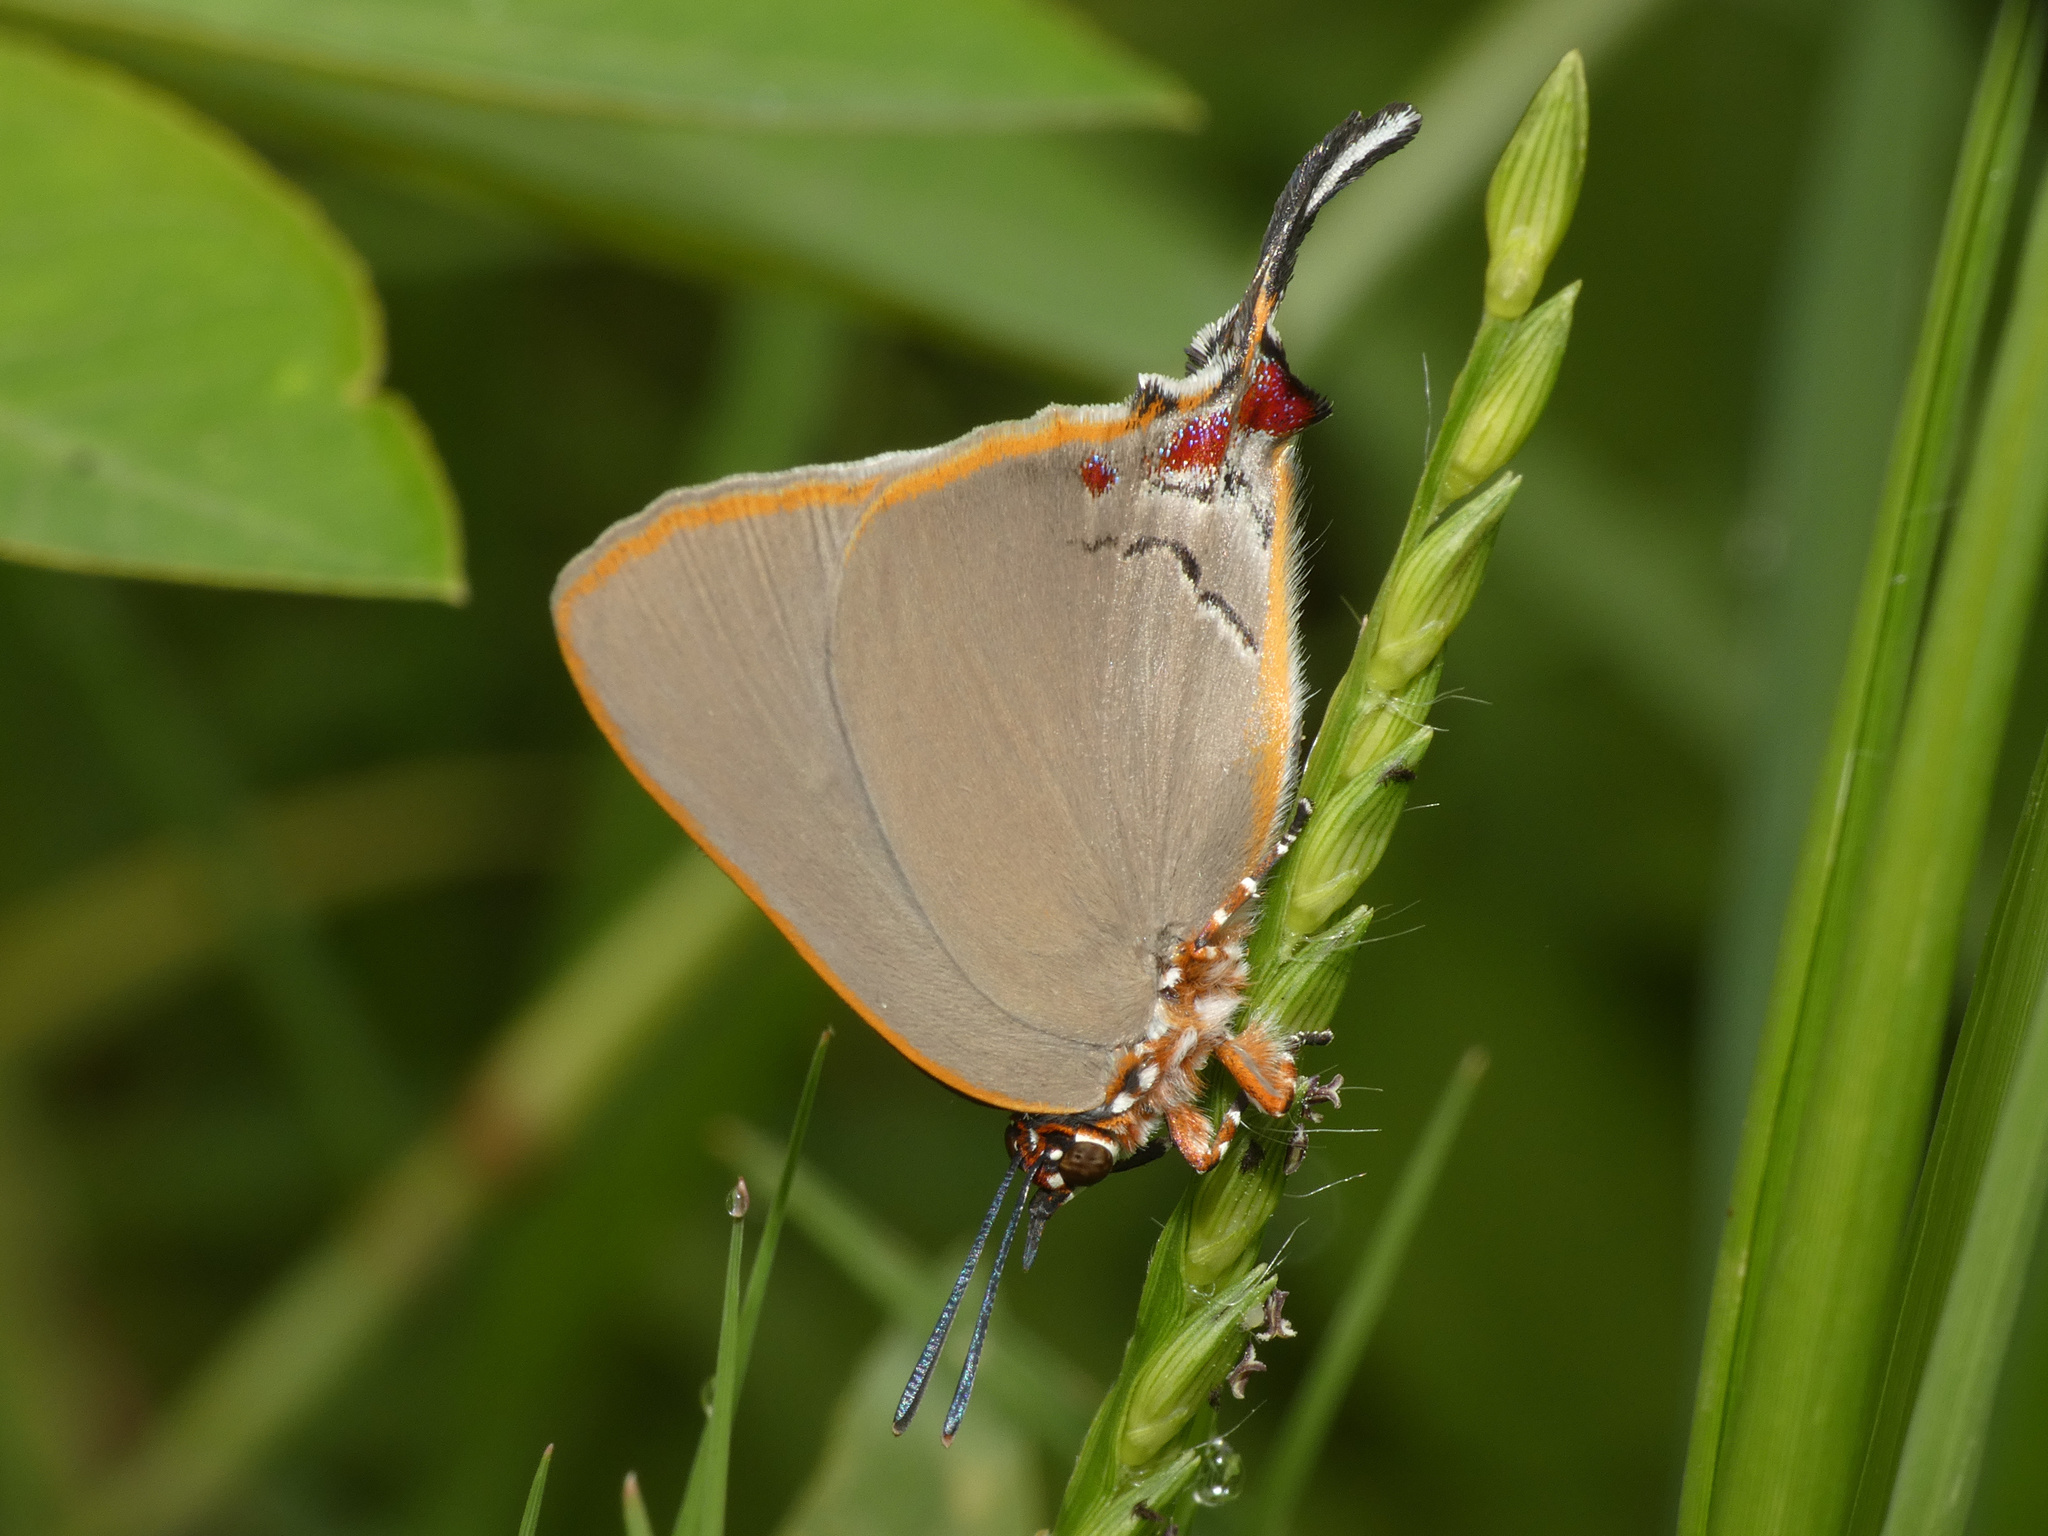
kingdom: Animalia
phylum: Arthropoda
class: Insecta
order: Lepidoptera
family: Lycaenidae
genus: Myrina
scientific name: Myrina dermaptera
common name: Lesser fig-tree blue
